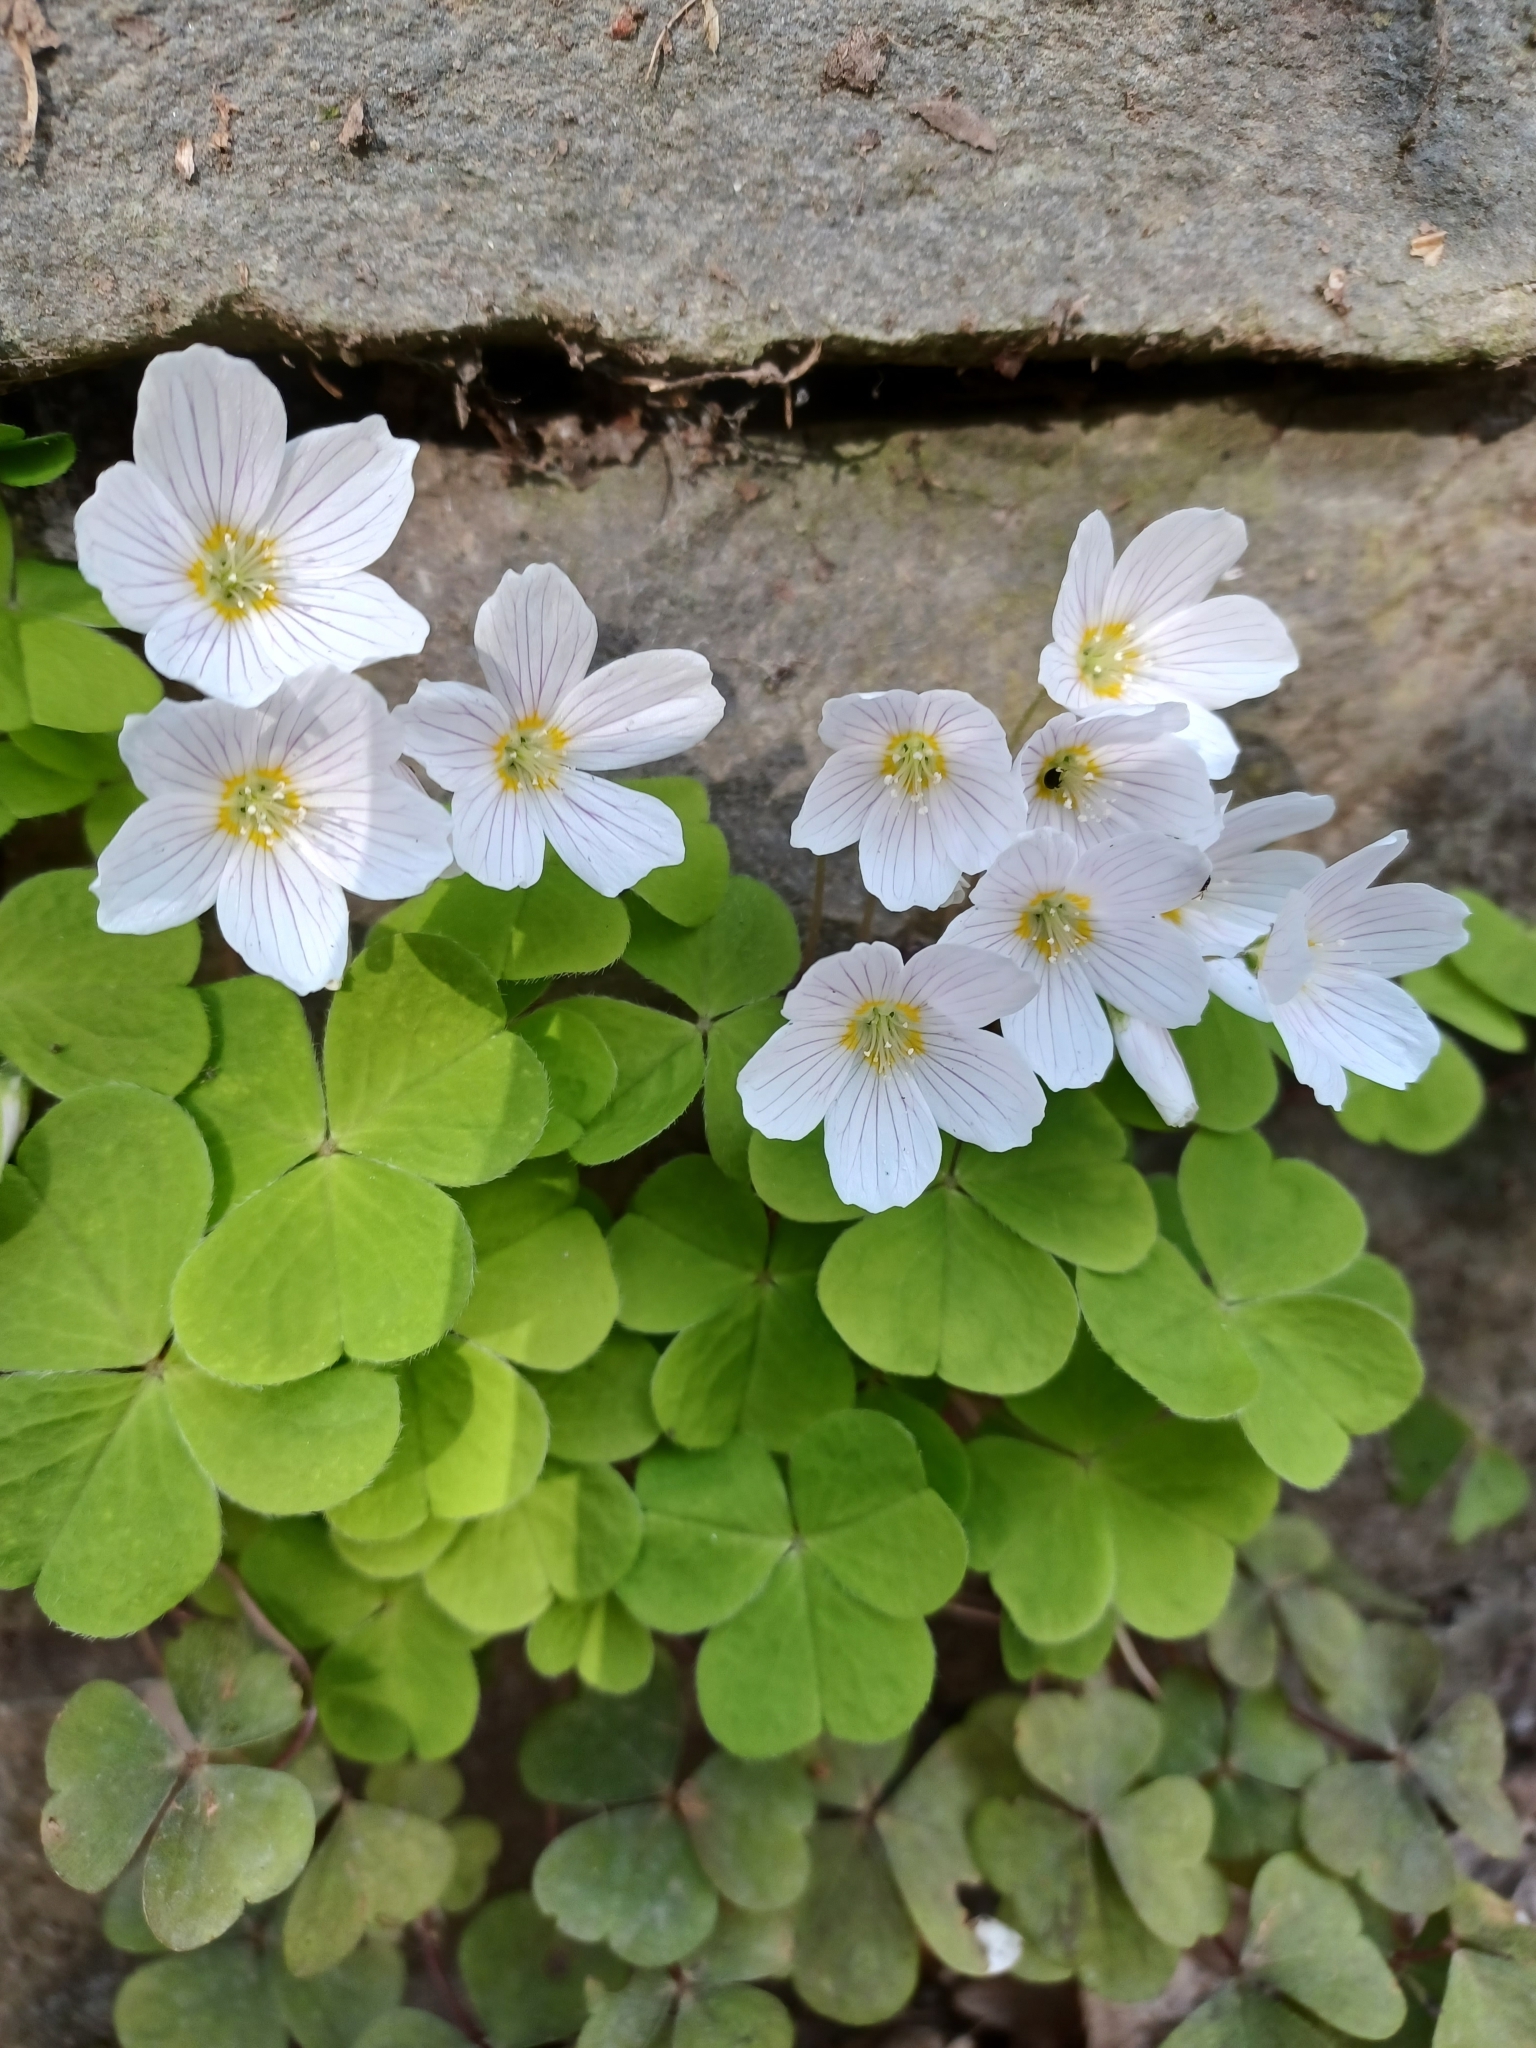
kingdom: Plantae
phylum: Tracheophyta
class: Magnoliopsida
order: Oxalidales
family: Oxalidaceae
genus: Oxalis
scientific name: Oxalis acetosella
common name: Wood-sorrel
